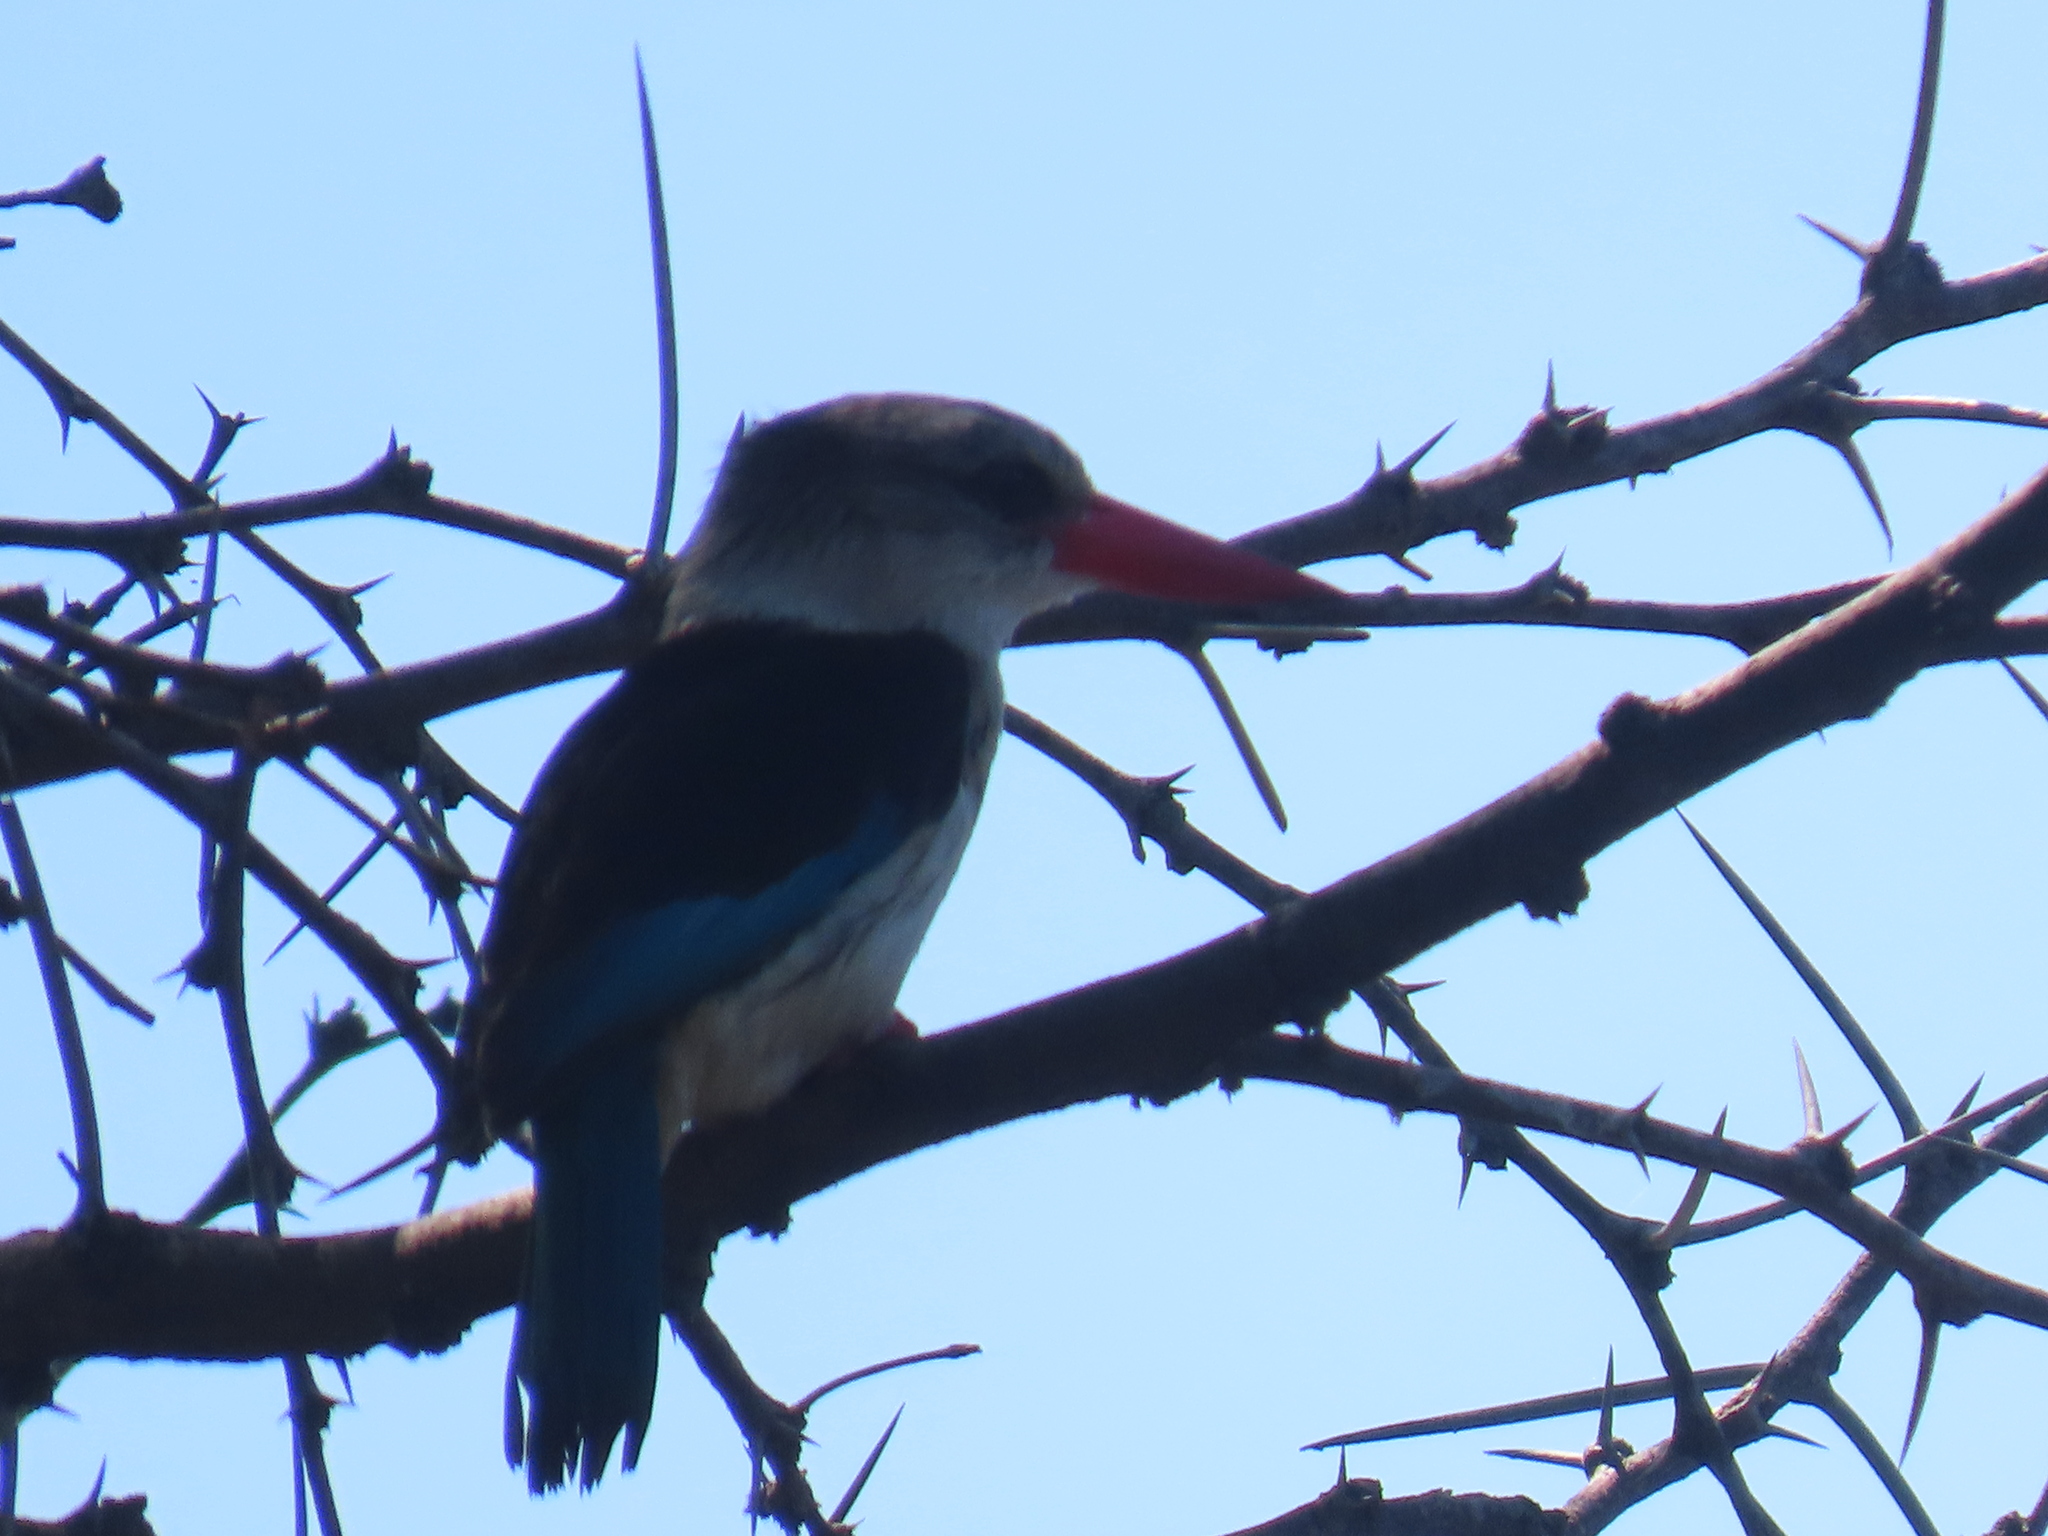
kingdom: Animalia
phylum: Chordata
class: Aves
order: Coraciiformes
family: Alcedinidae
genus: Halcyon
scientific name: Halcyon albiventris
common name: Brown-hooded kingfisher
